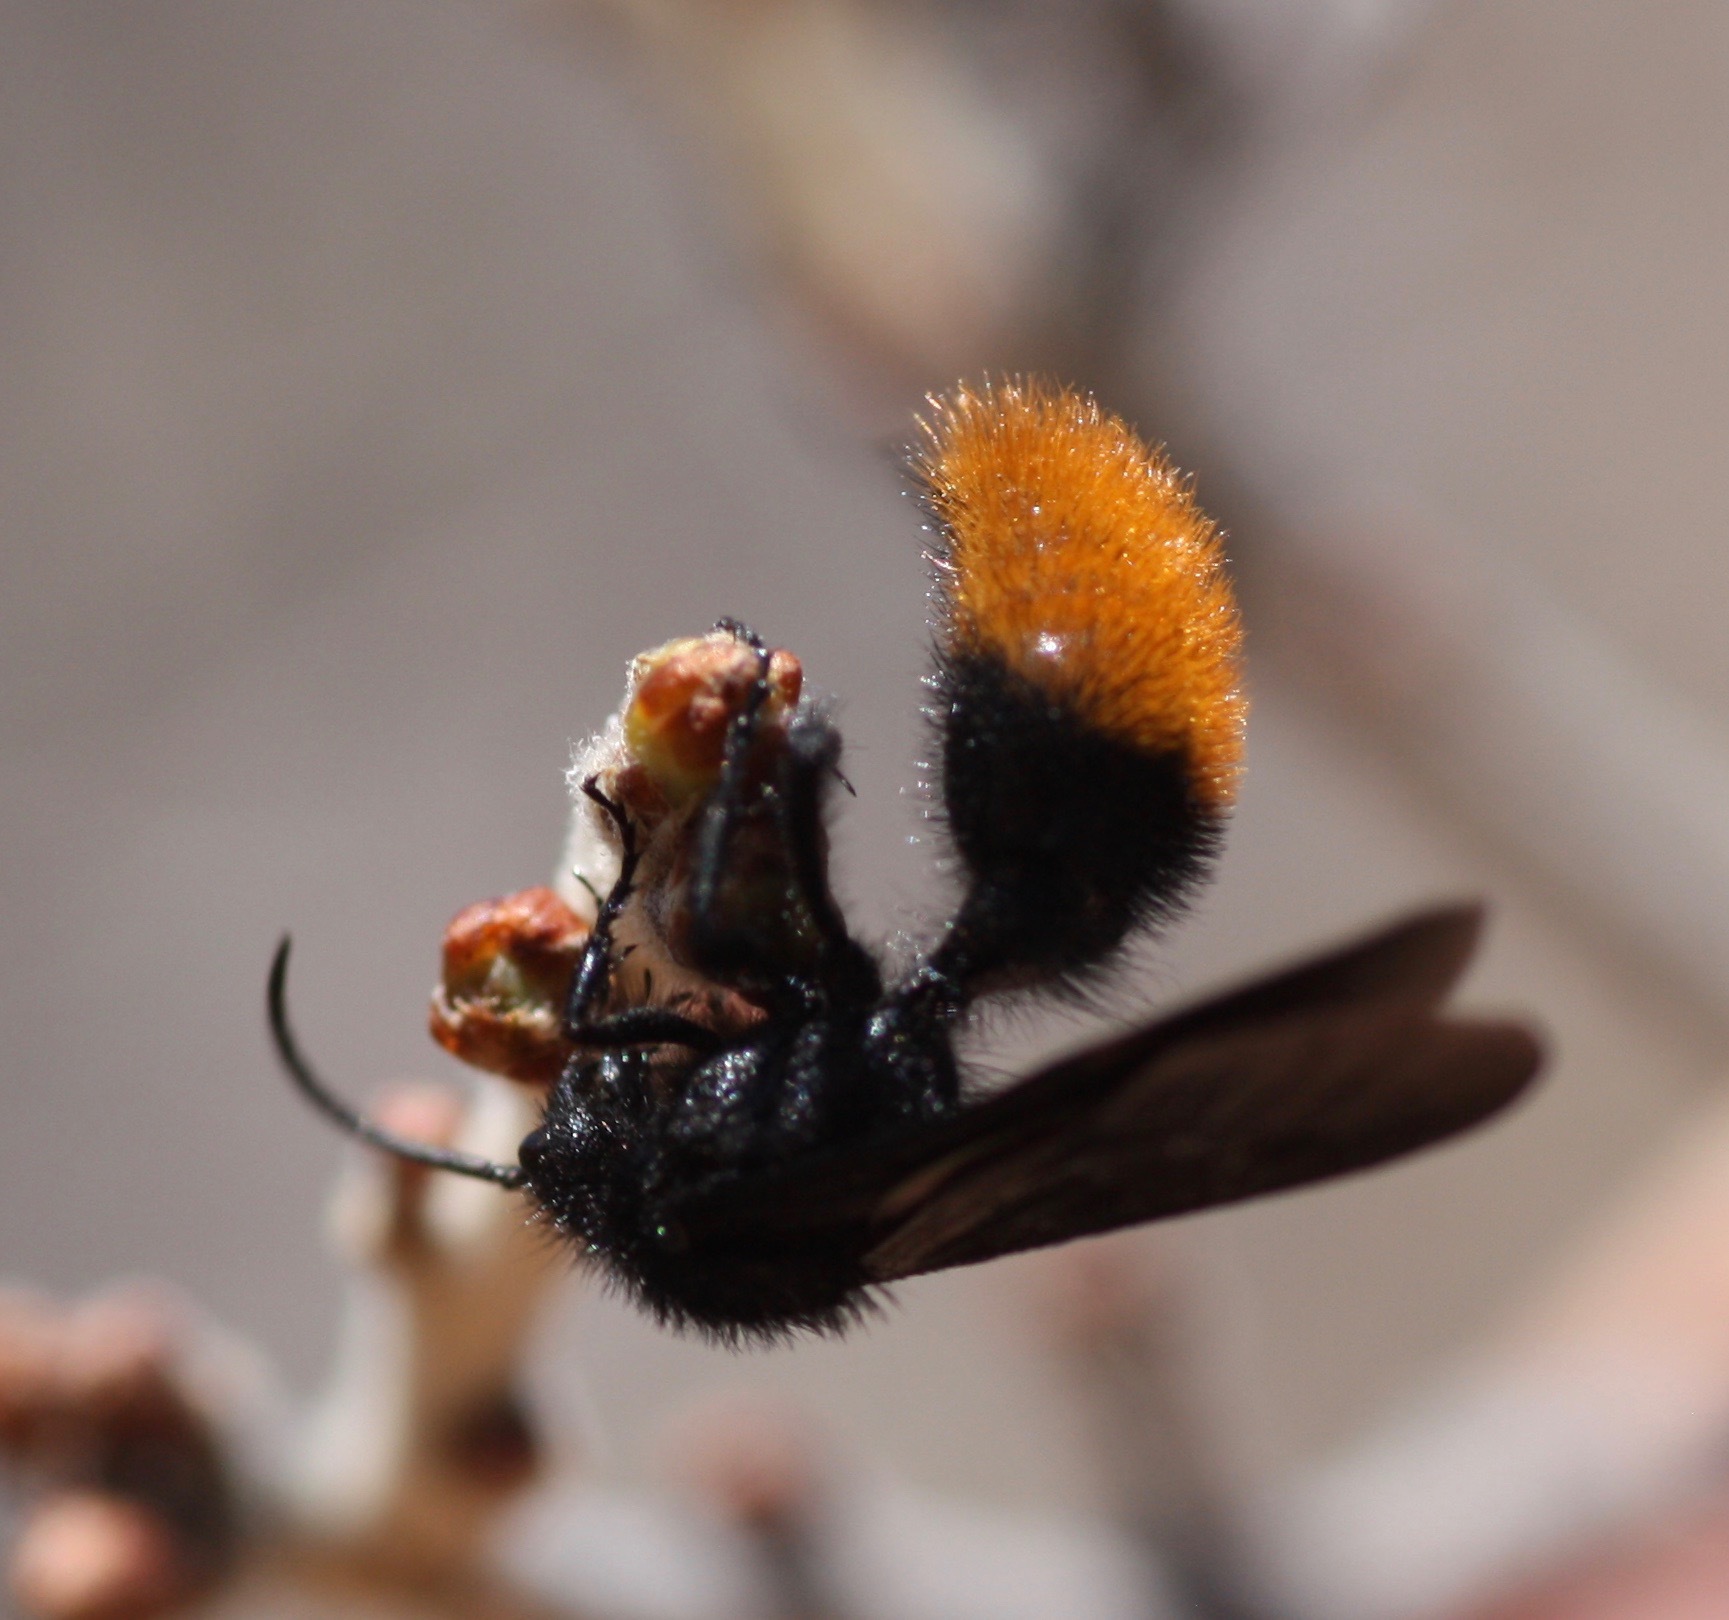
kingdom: Animalia
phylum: Arthropoda
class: Insecta
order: Hymenoptera
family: Mutillidae
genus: Dasymutilla
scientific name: Dasymutilla
